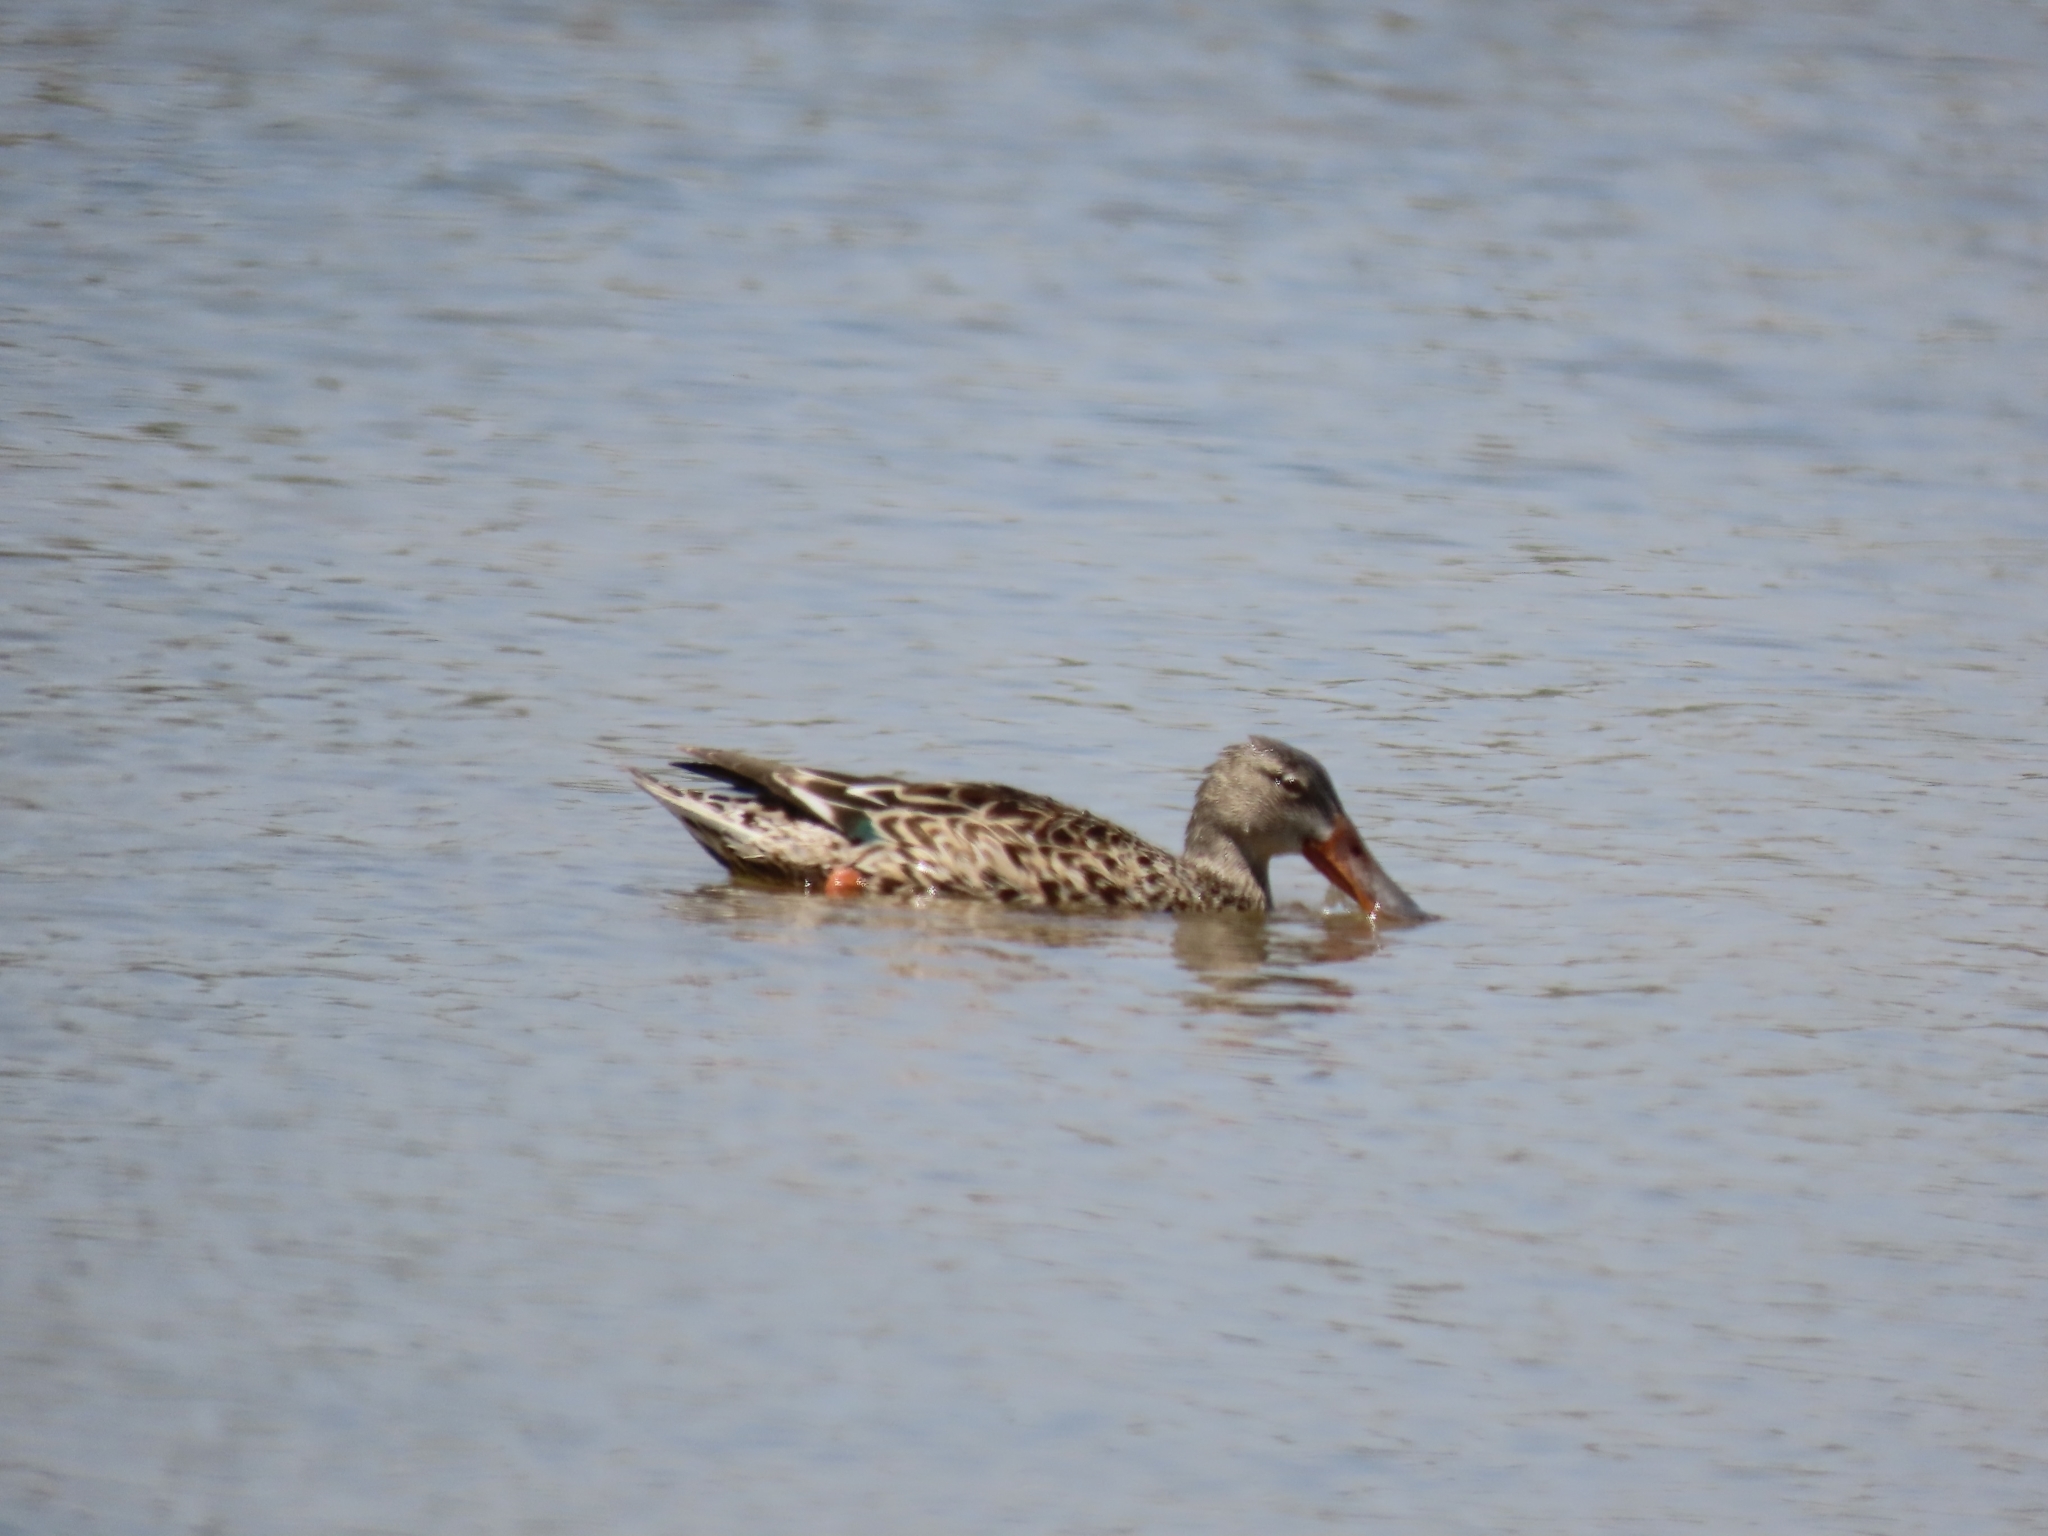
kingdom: Animalia
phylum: Chordata
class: Aves
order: Anseriformes
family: Anatidae
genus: Spatula
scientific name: Spatula clypeata
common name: Northern shoveler
